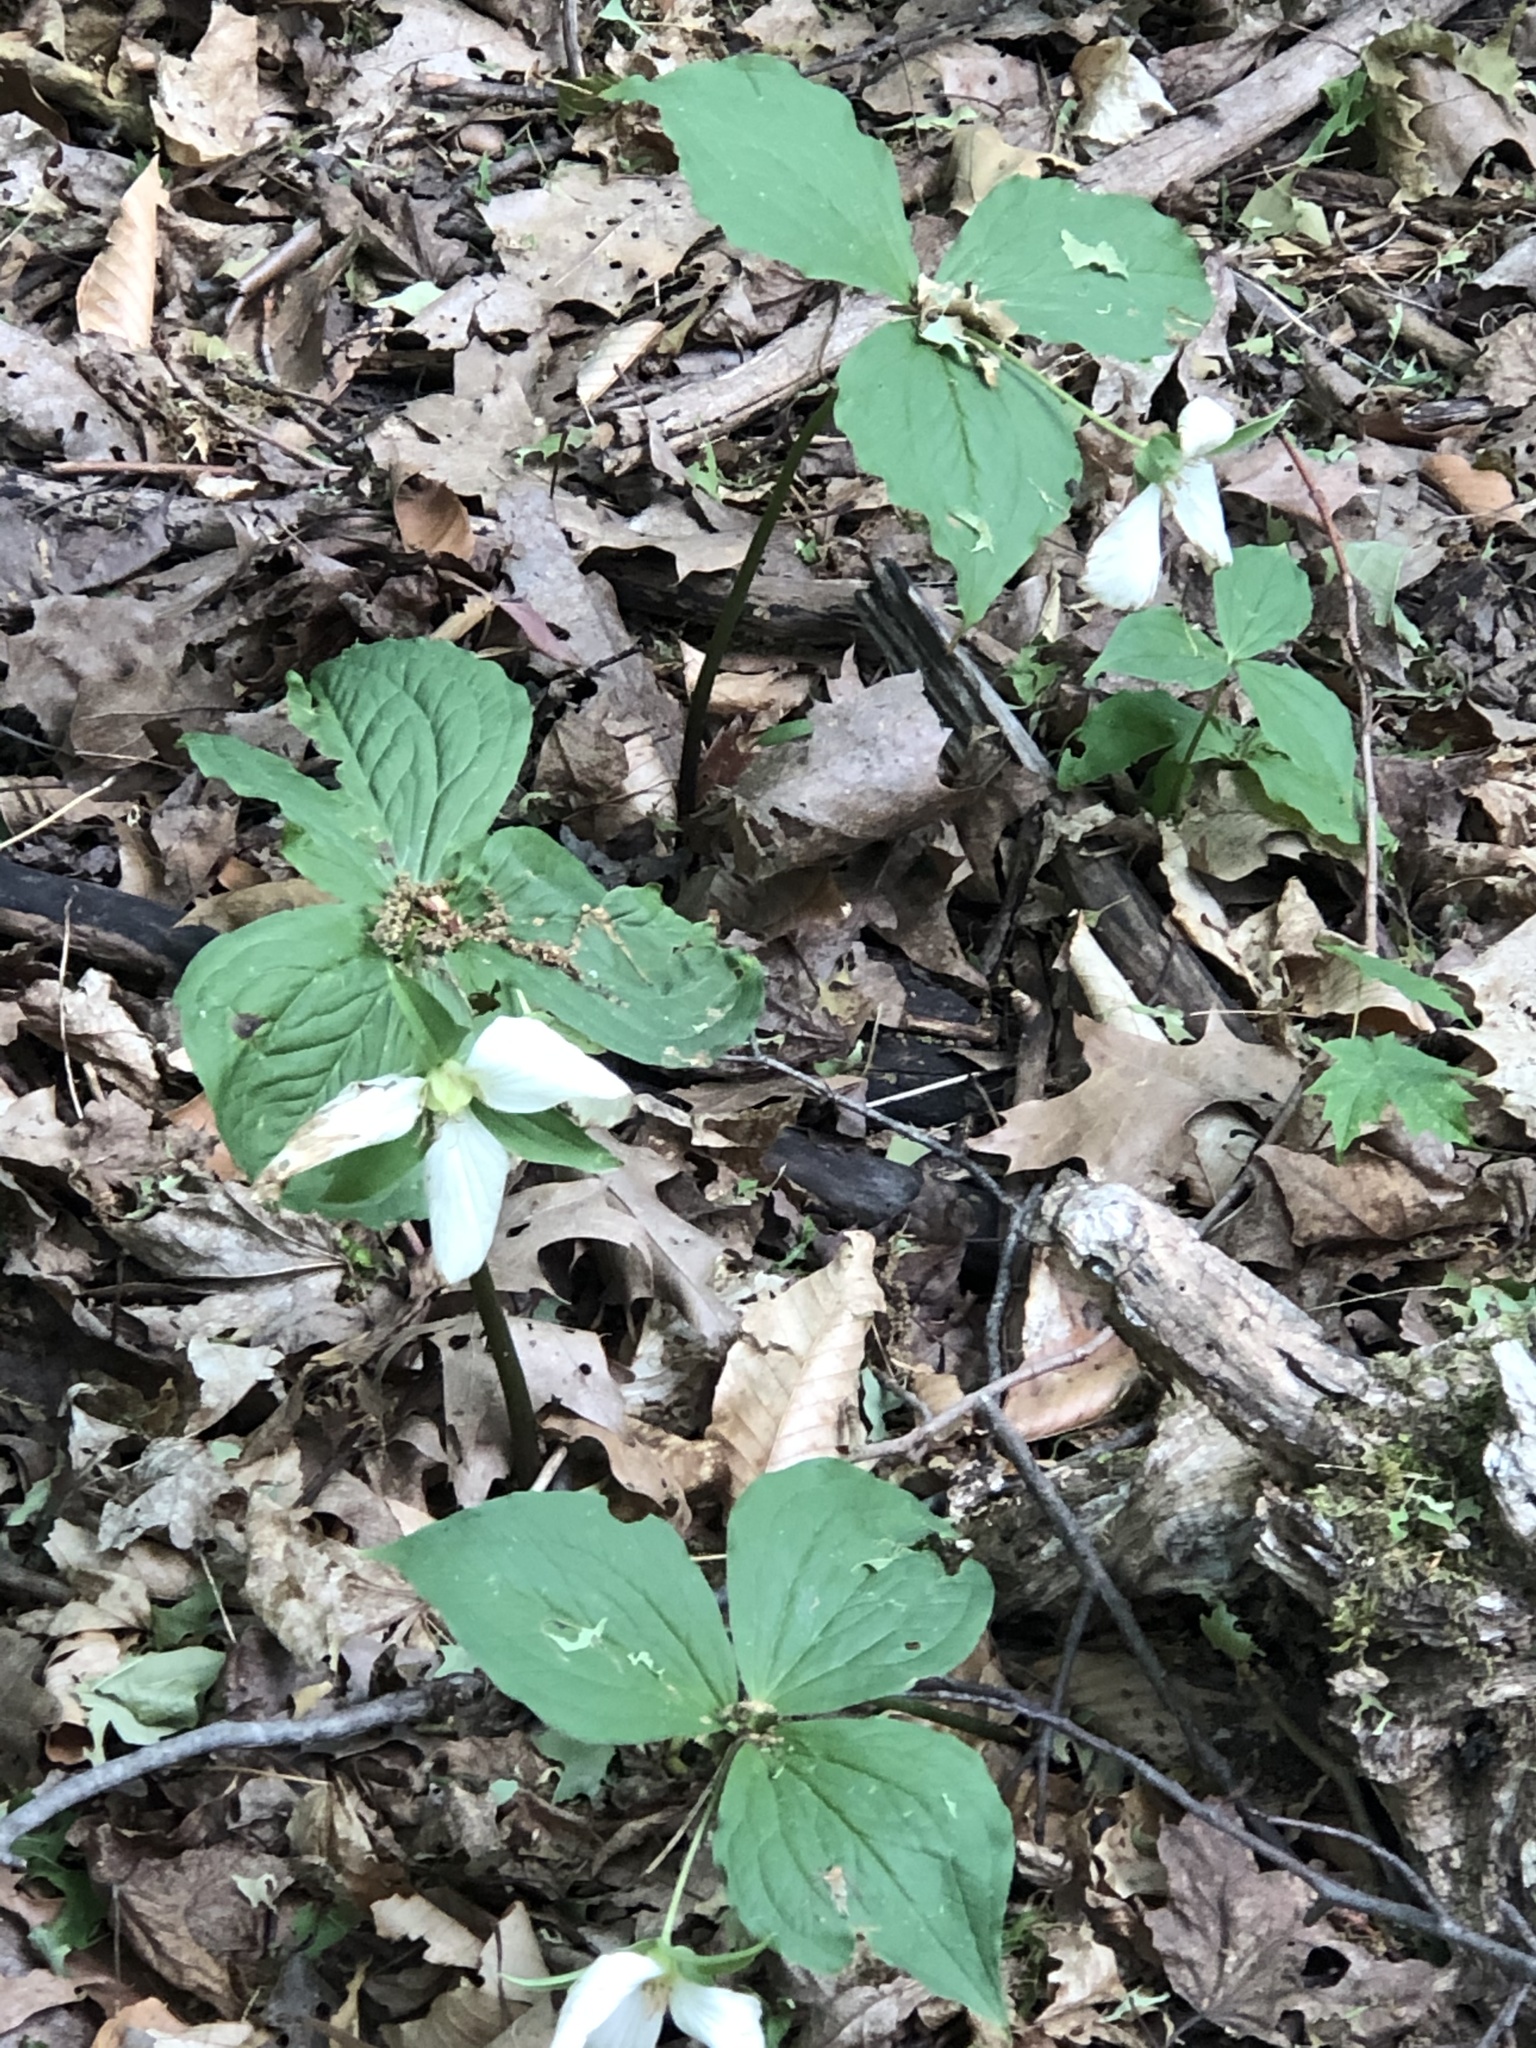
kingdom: Plantae
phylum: Tracheophyta
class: Liliopsida
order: Liliales
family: Melanthiaceae
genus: Trillium
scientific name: Trillium grandiflorum
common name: Great white trillium
